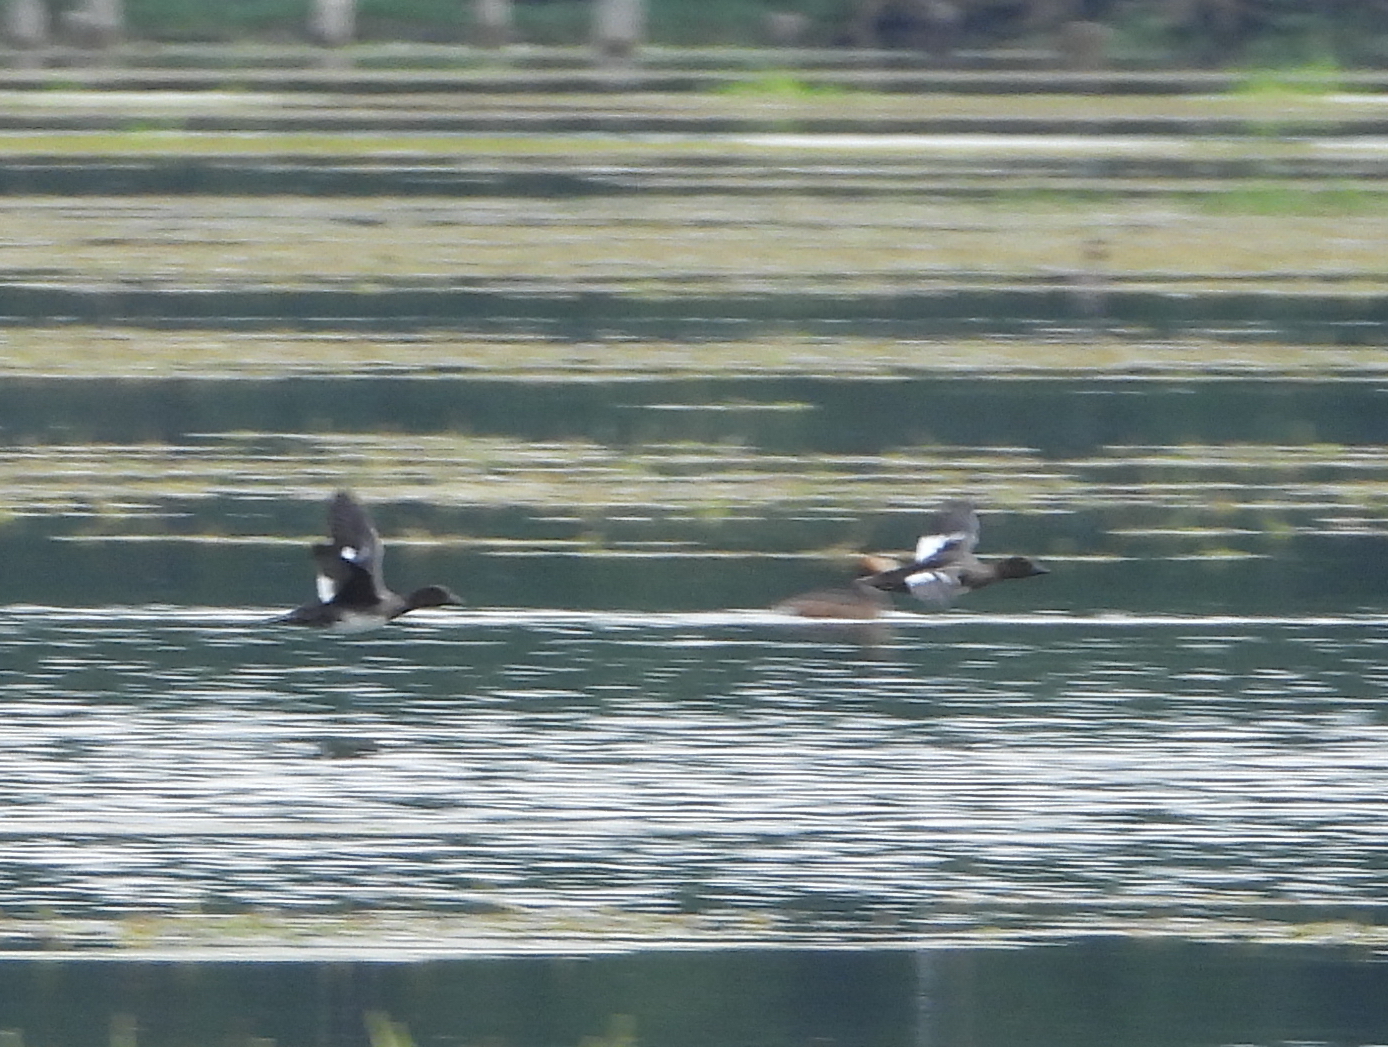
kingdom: Animalia
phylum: Chordata
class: Aves
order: Anseriformes
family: Anatidae
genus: Bucephala
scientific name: Bucephala clangula
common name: Common goldeneye
